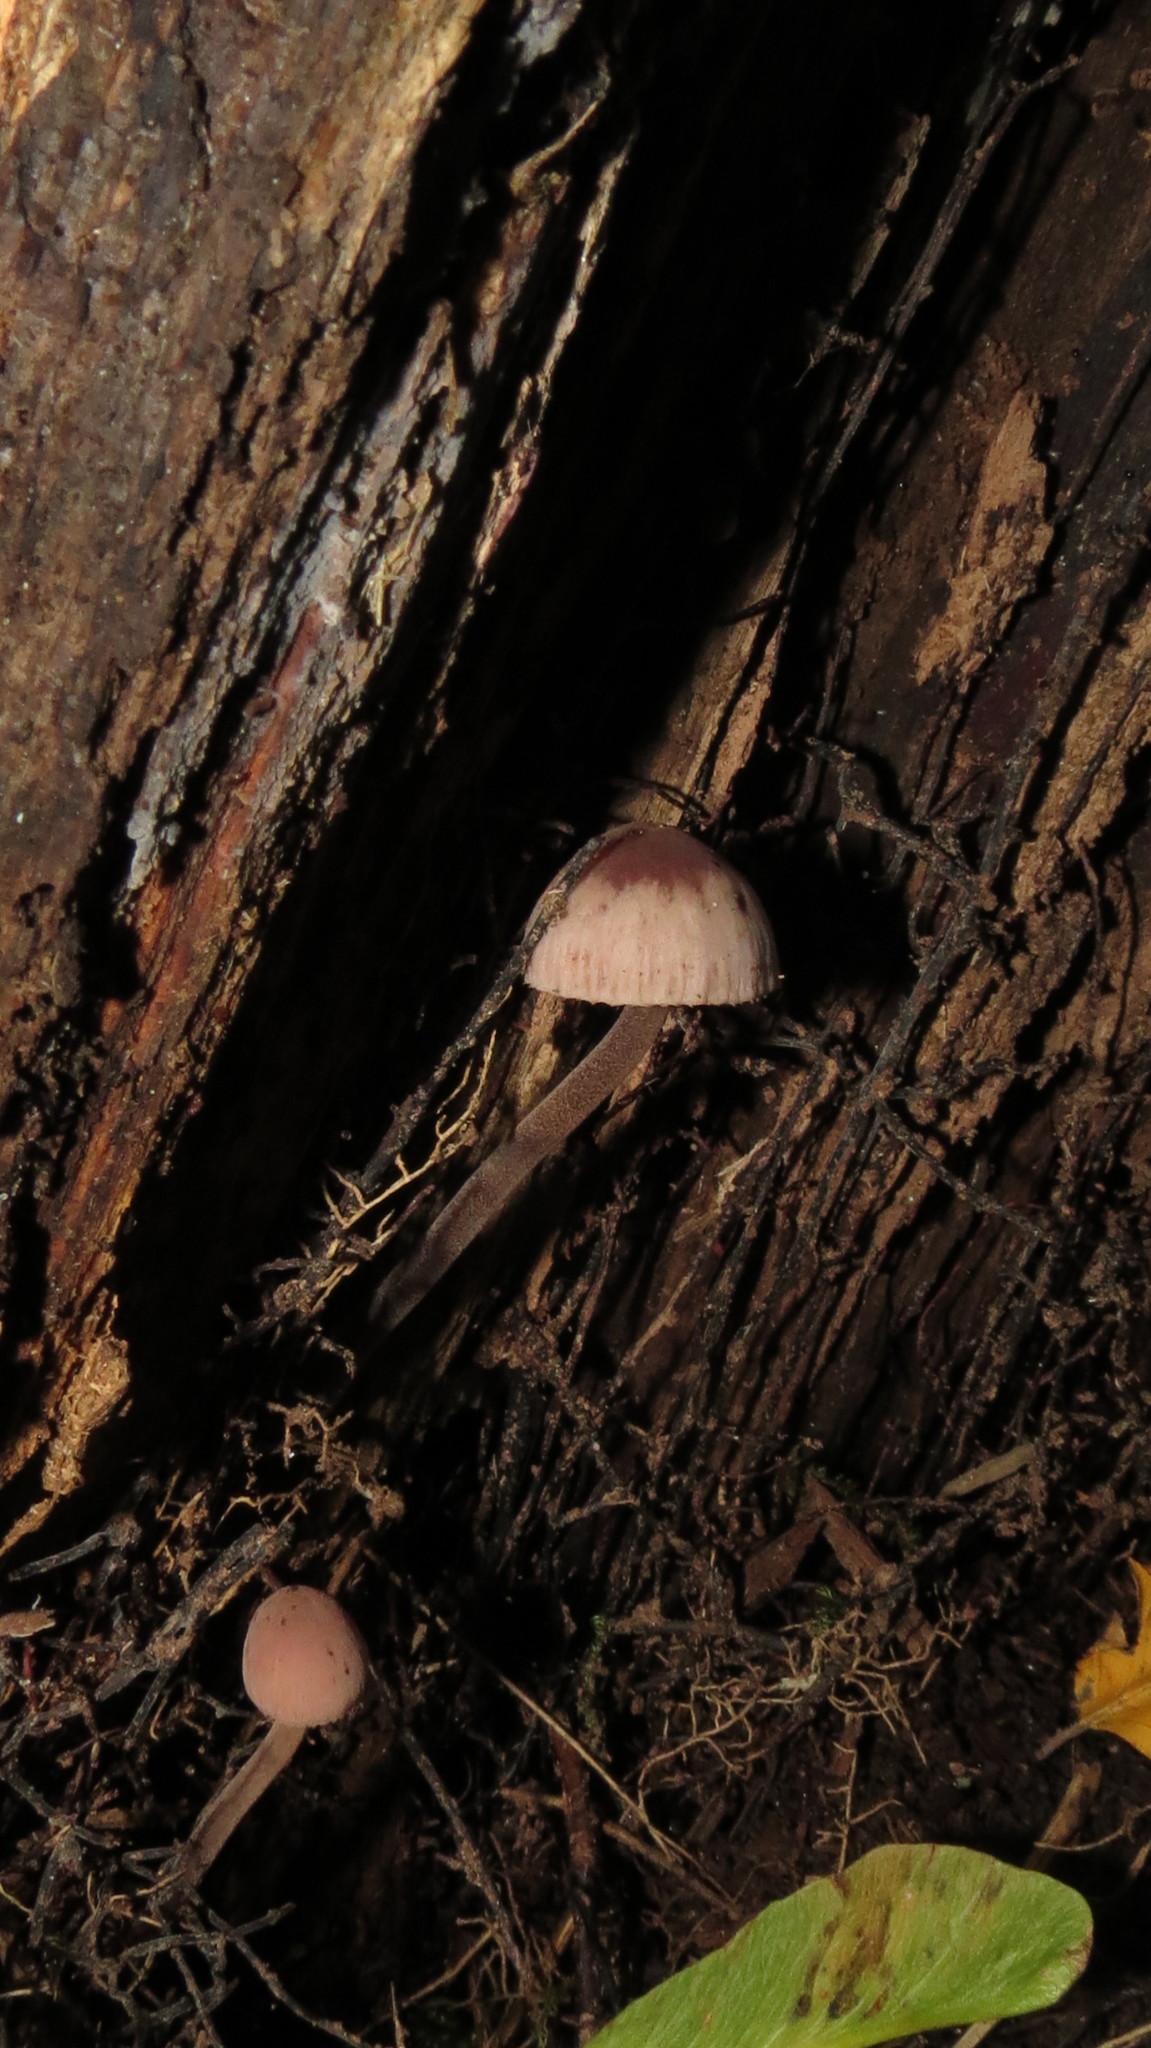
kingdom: Fungi
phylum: Basidiomycota
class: Agaricomycetes
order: Agaricales
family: Mycenaceae
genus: Mycena
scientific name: Mycena haematopus
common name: Burgundydrop bonnet
